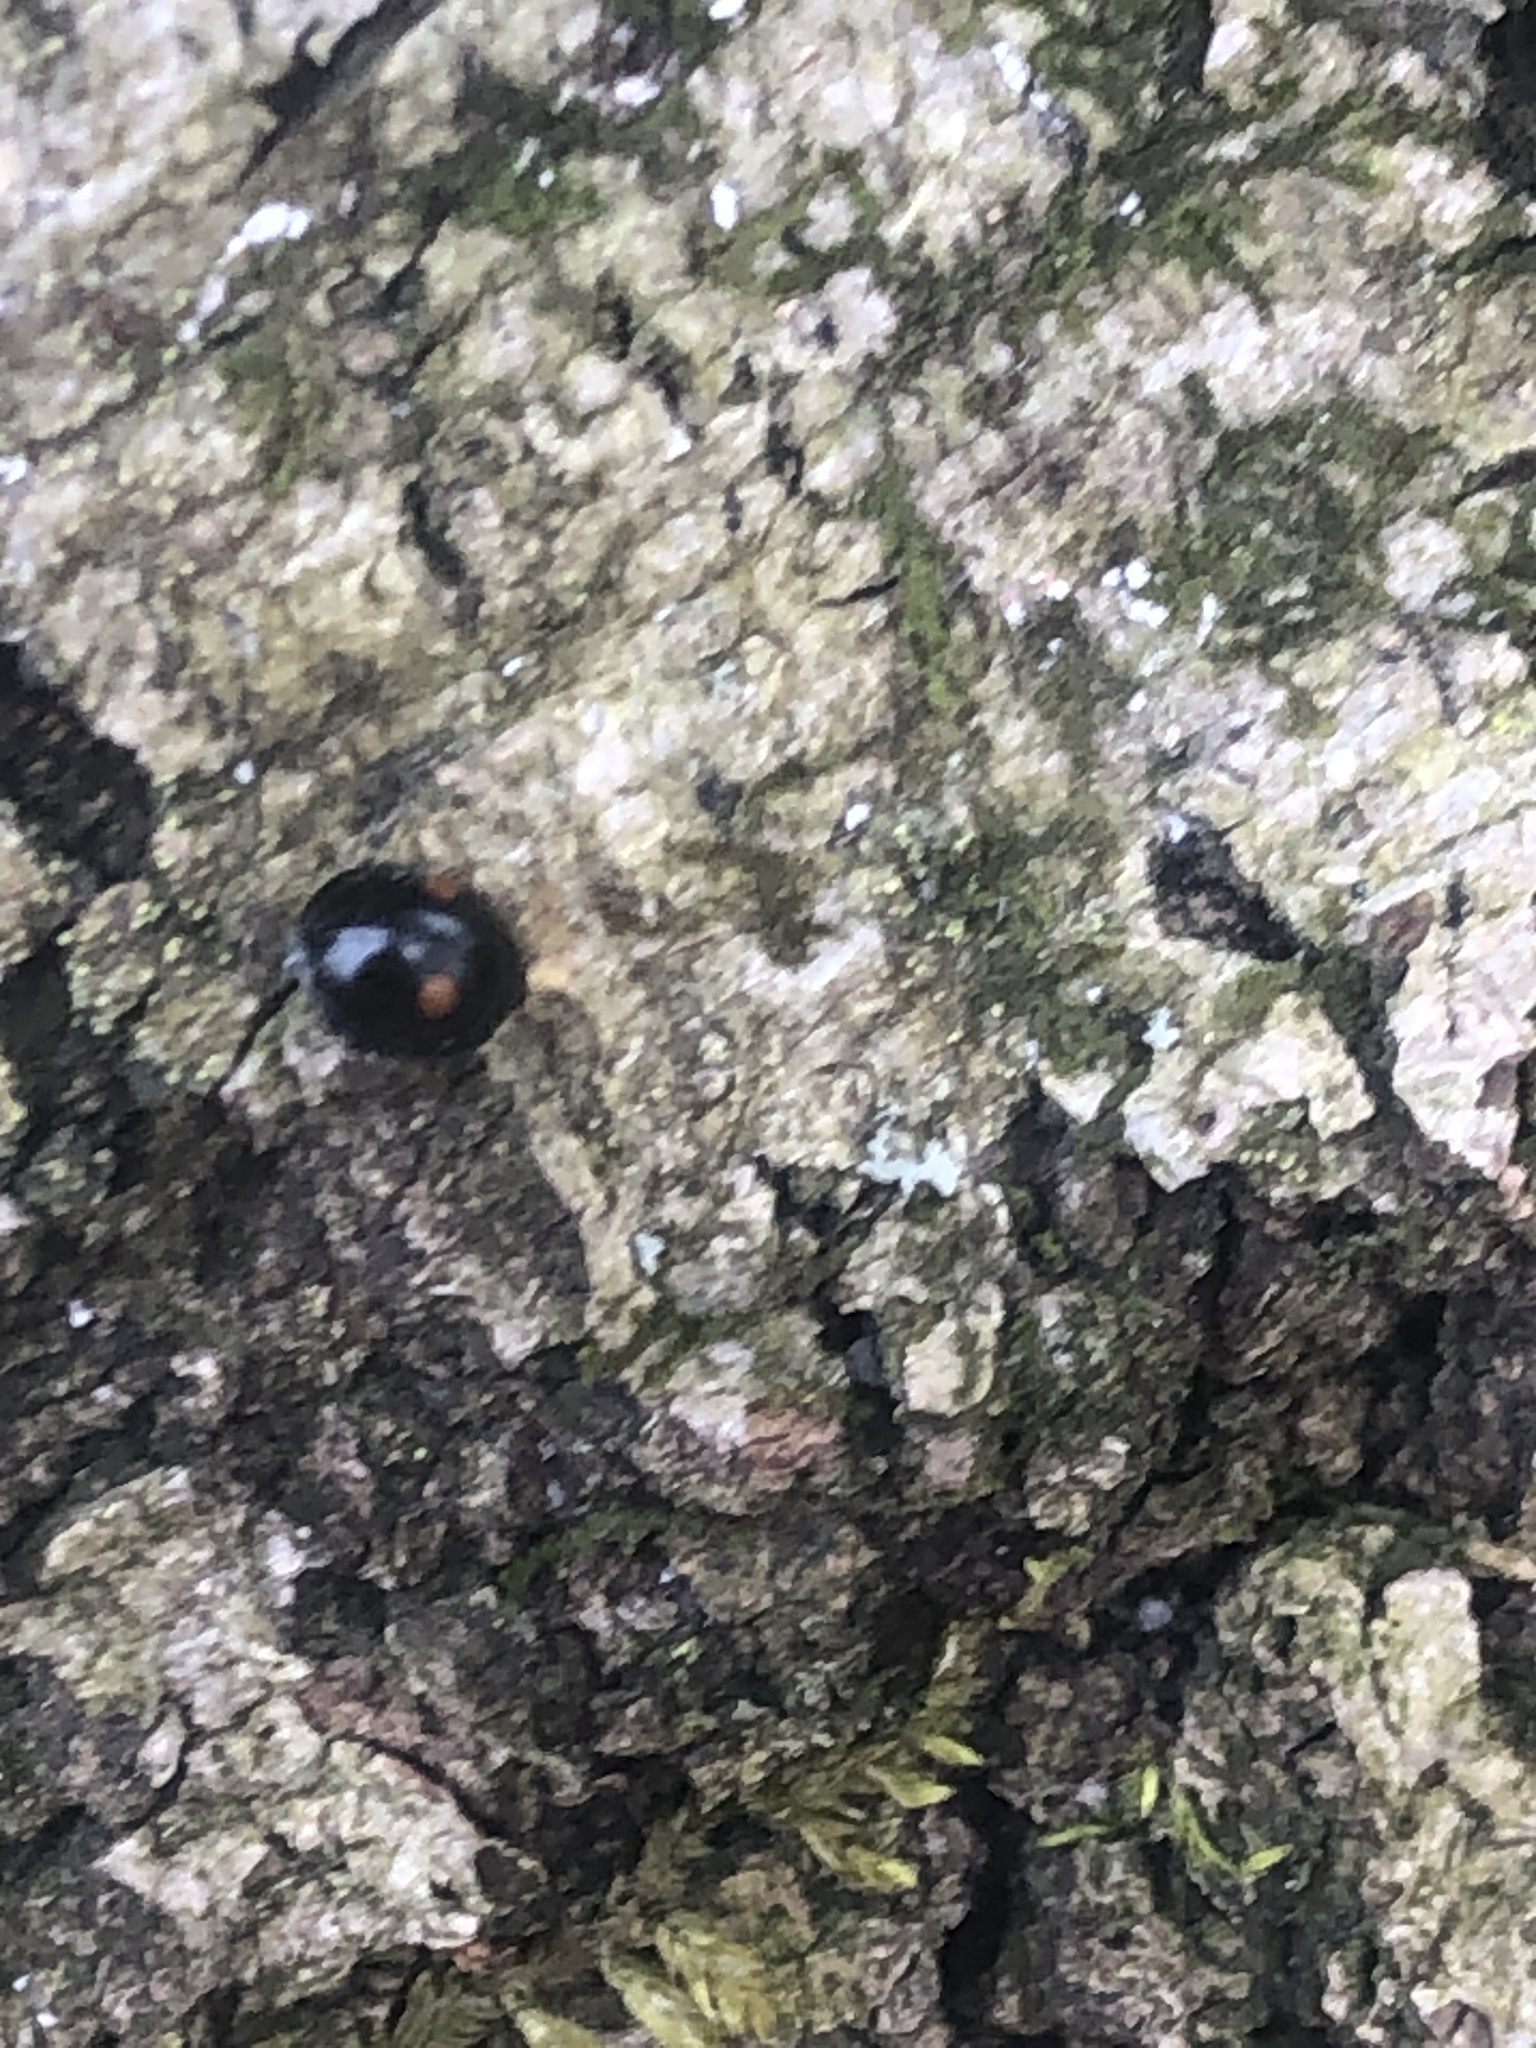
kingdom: Animalia
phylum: Arthropoda
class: Insecta
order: Coleoptera
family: Coccinellidae
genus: Chilocorus
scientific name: Chilocorus stigma
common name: Twicestabbed lady beetle
